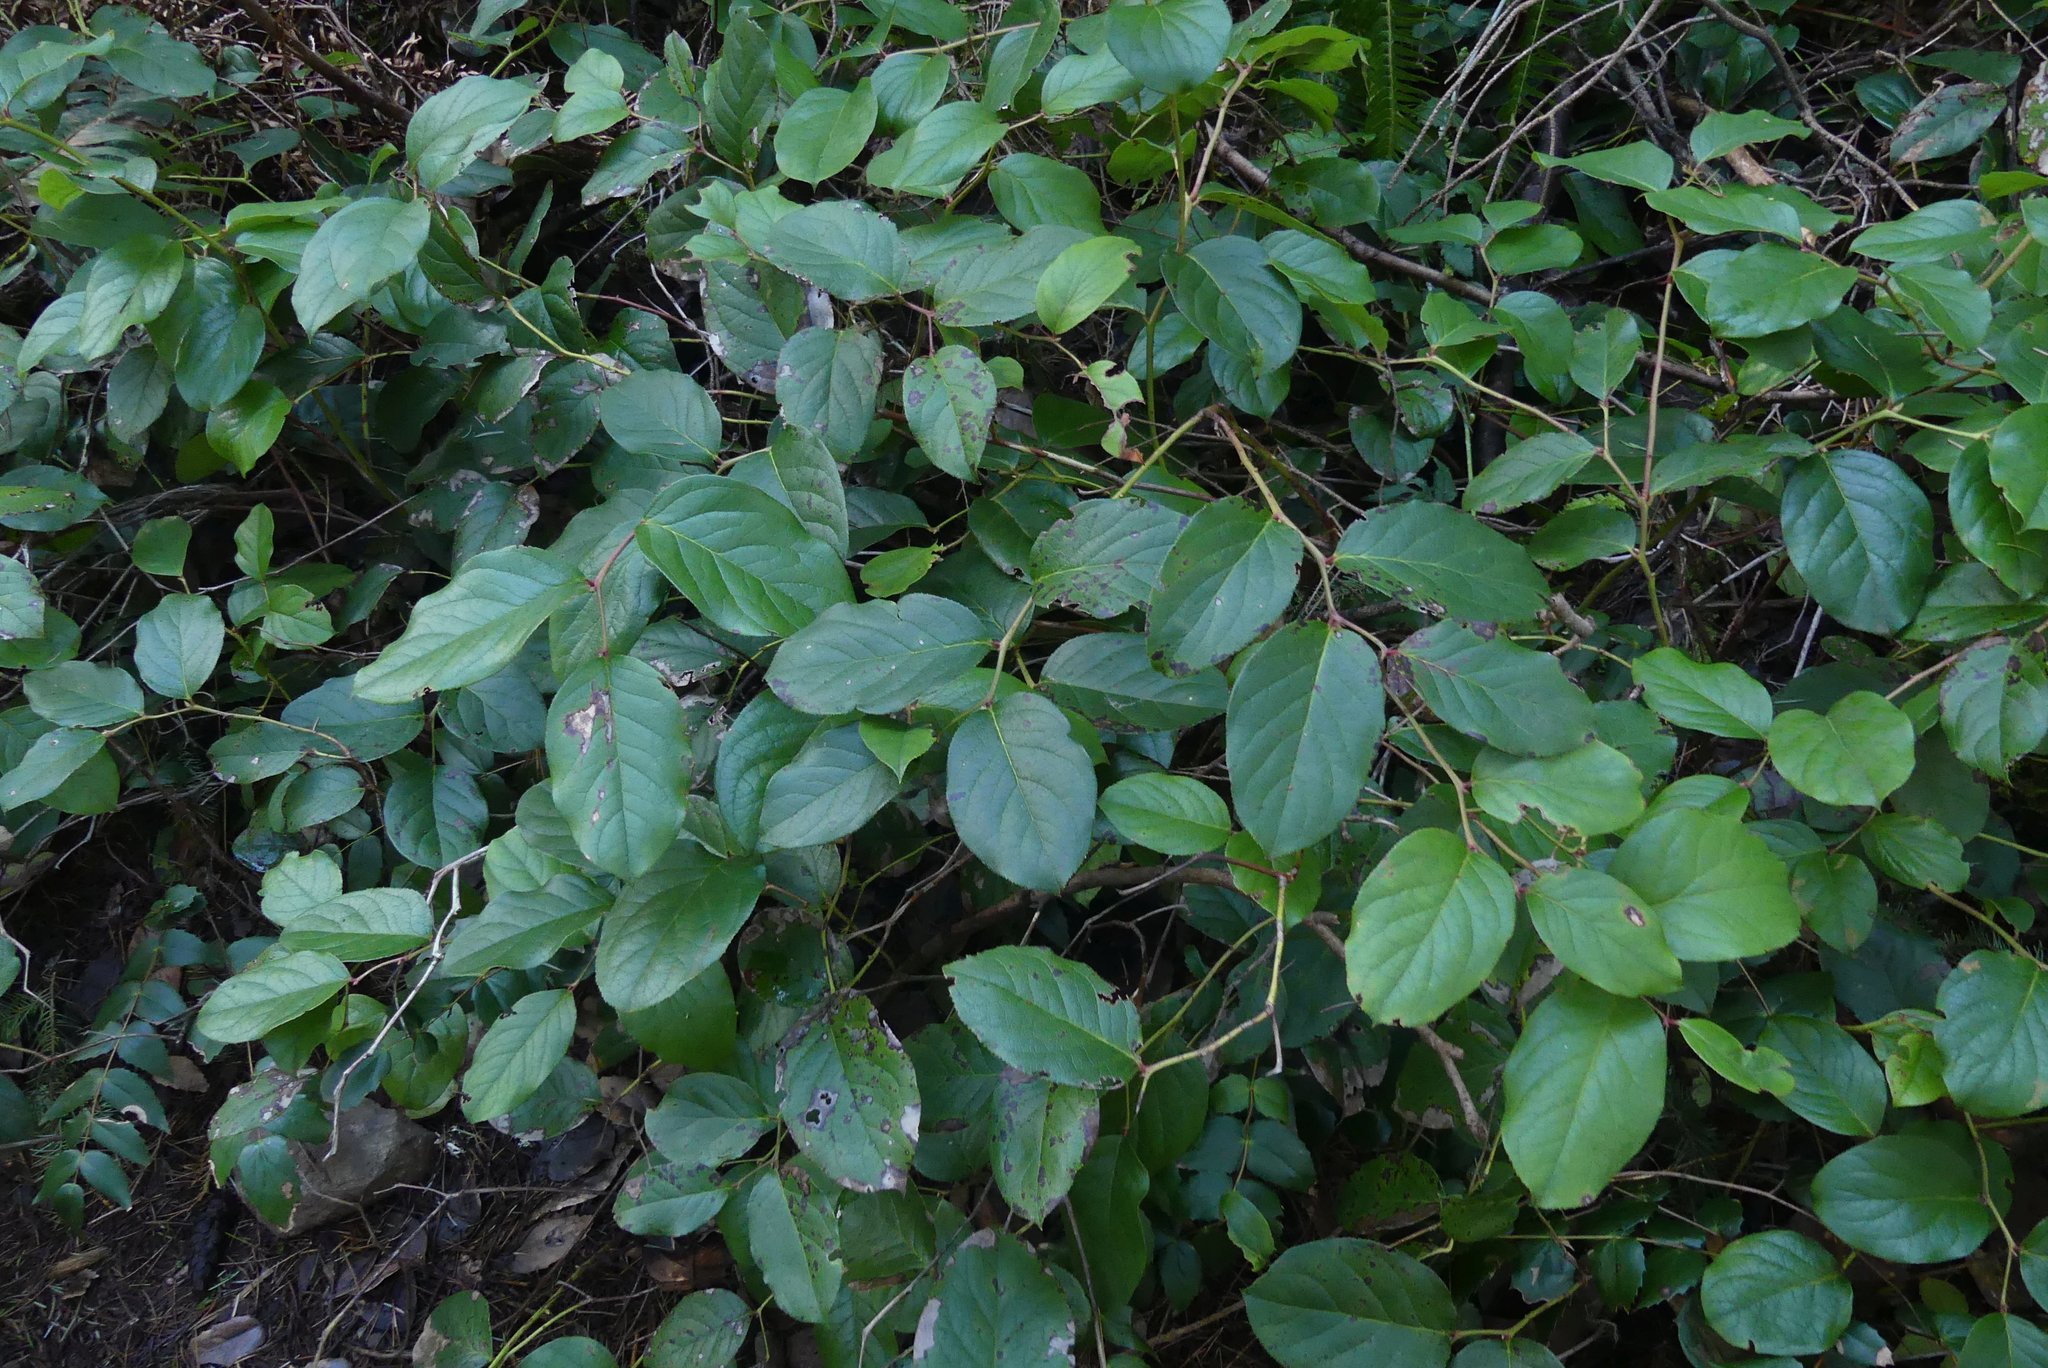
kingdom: Plantae
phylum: Tracheophyta
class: Magnoliopsida
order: Ericales
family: Ericaceae
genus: Gaultheria
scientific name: Gaultheria shallon
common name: Shallon
